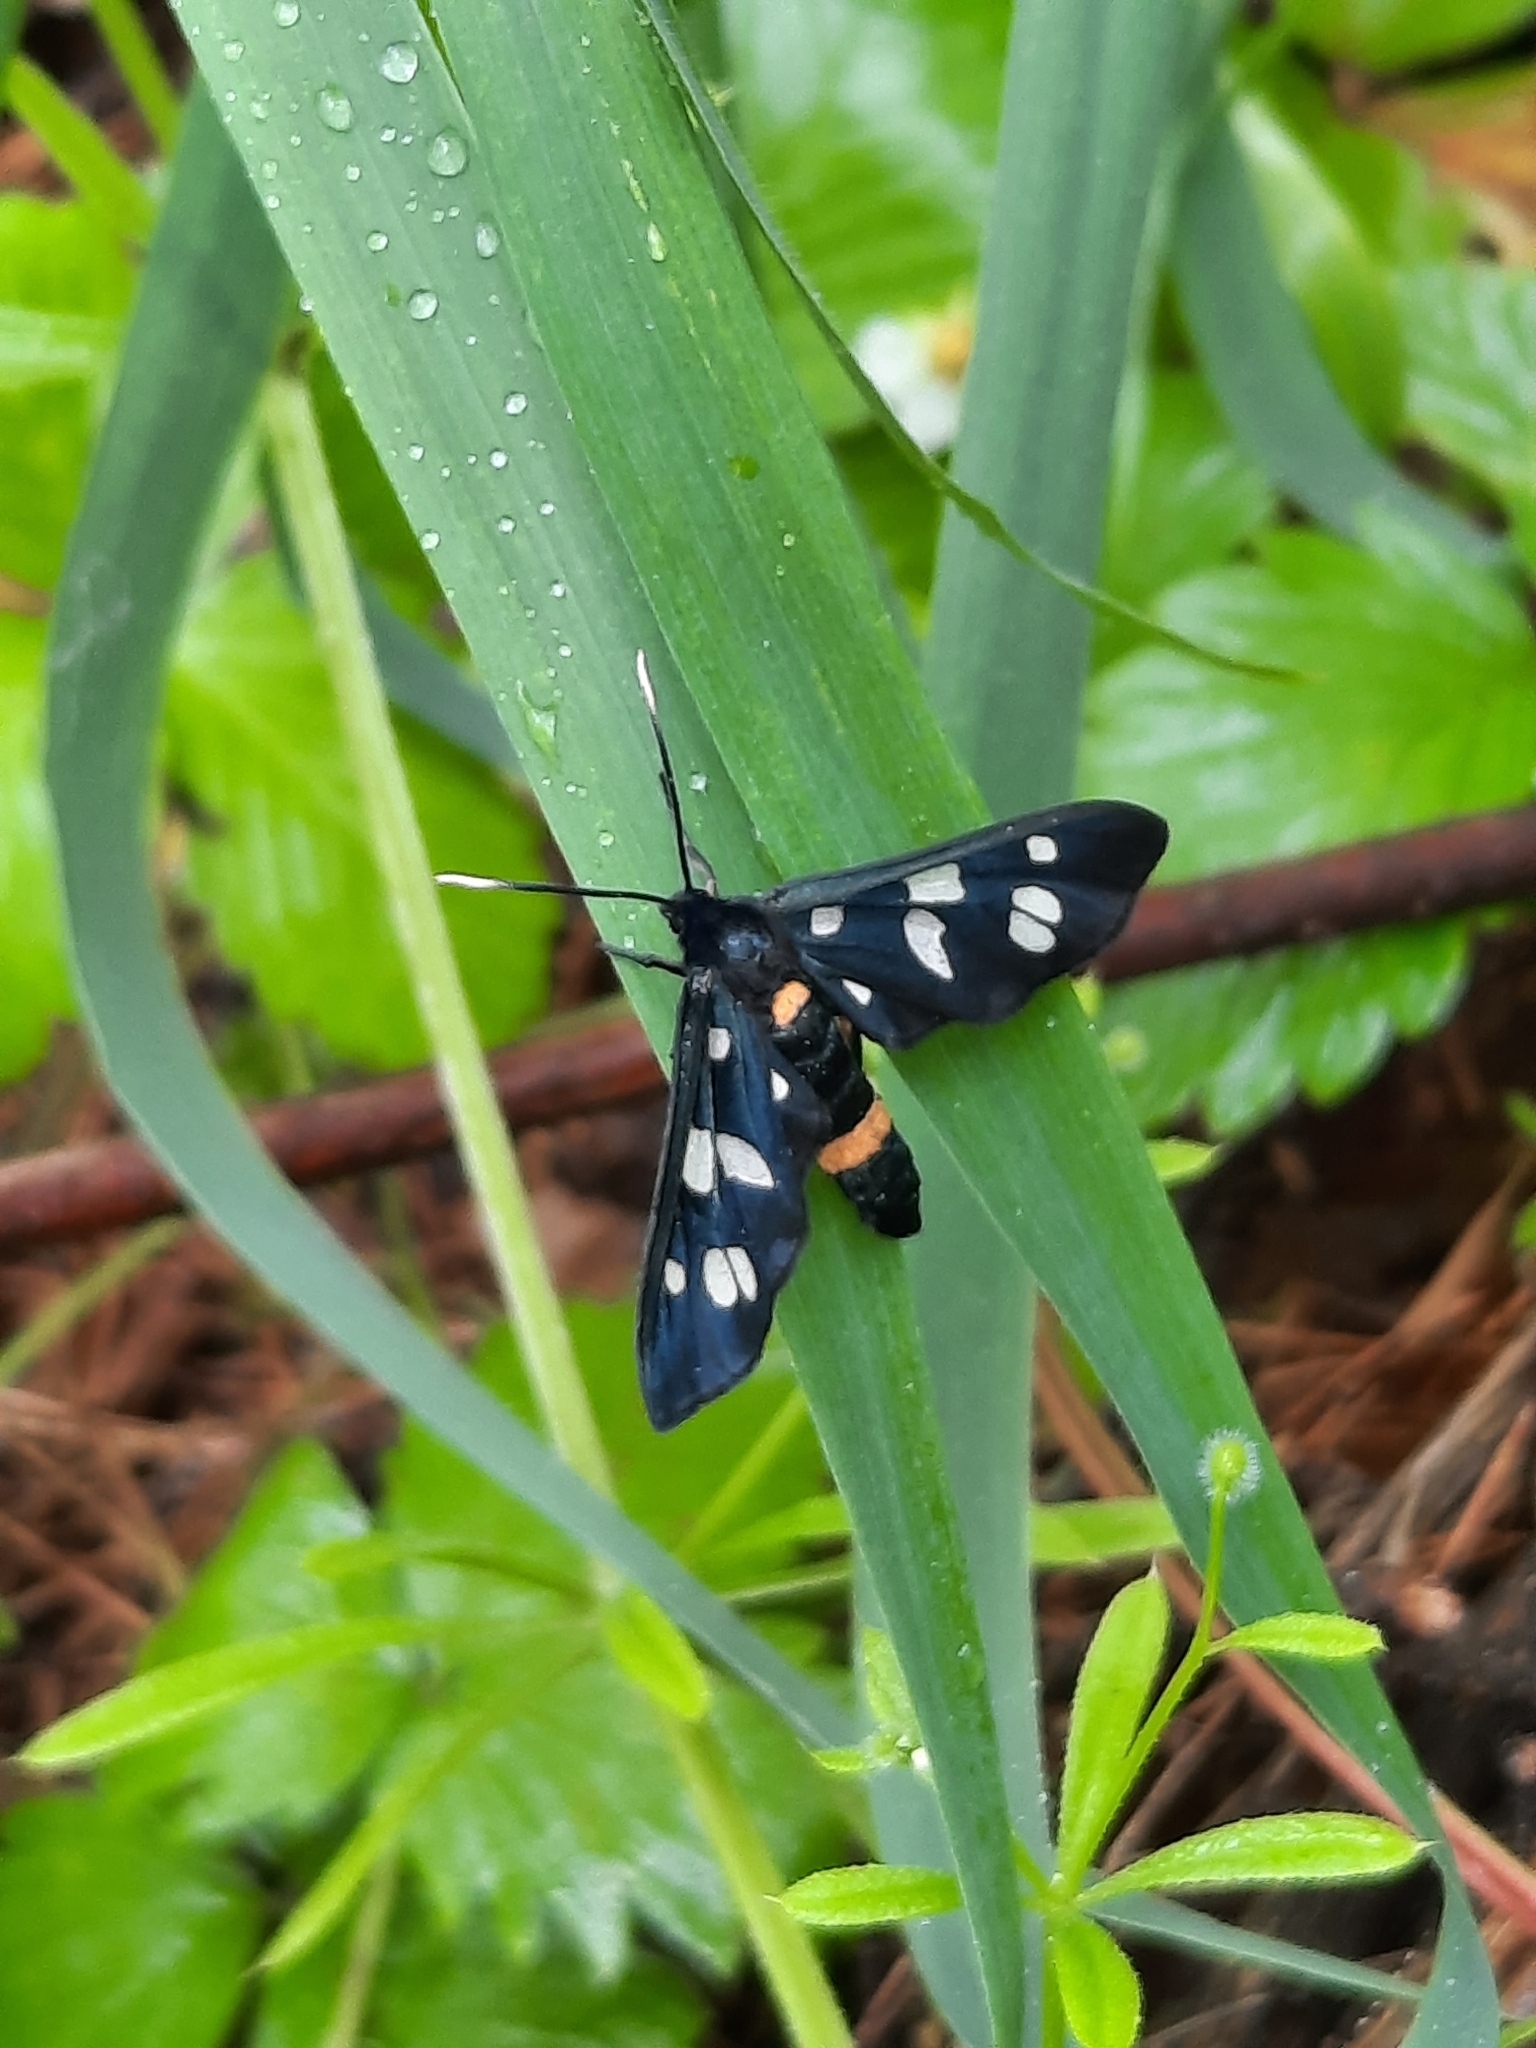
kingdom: Animalia
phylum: Arthropoda
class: Insecta
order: Lepidoptera
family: Erebidae
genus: Amata
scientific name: Amata nigricornis
